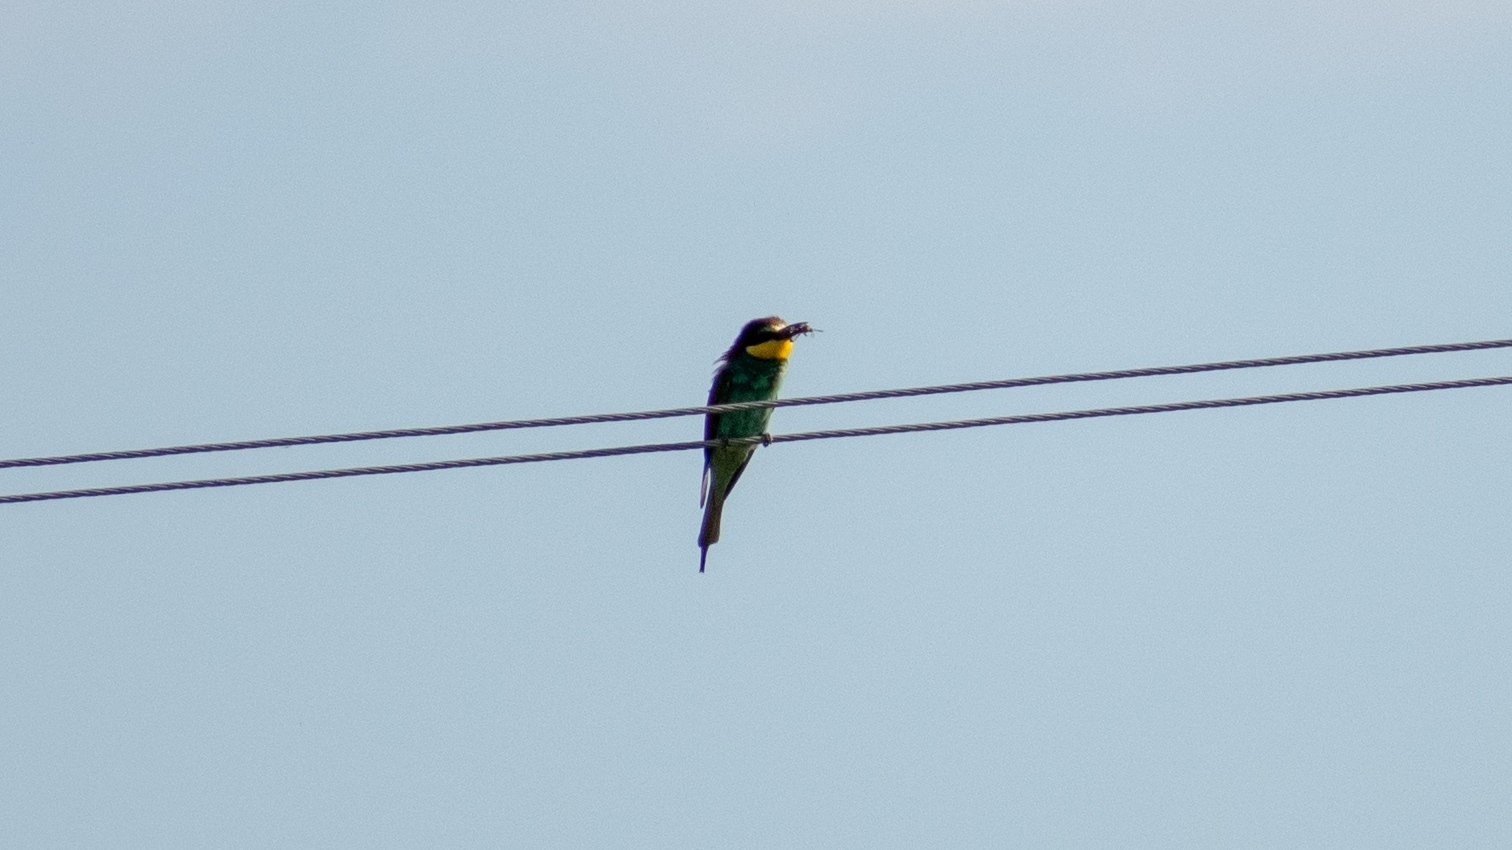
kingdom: Animalia
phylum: Chordata
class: Aves
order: Coraciiformes
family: Meropidae
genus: Merops
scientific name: Merops apiaster
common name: European bee-eater
